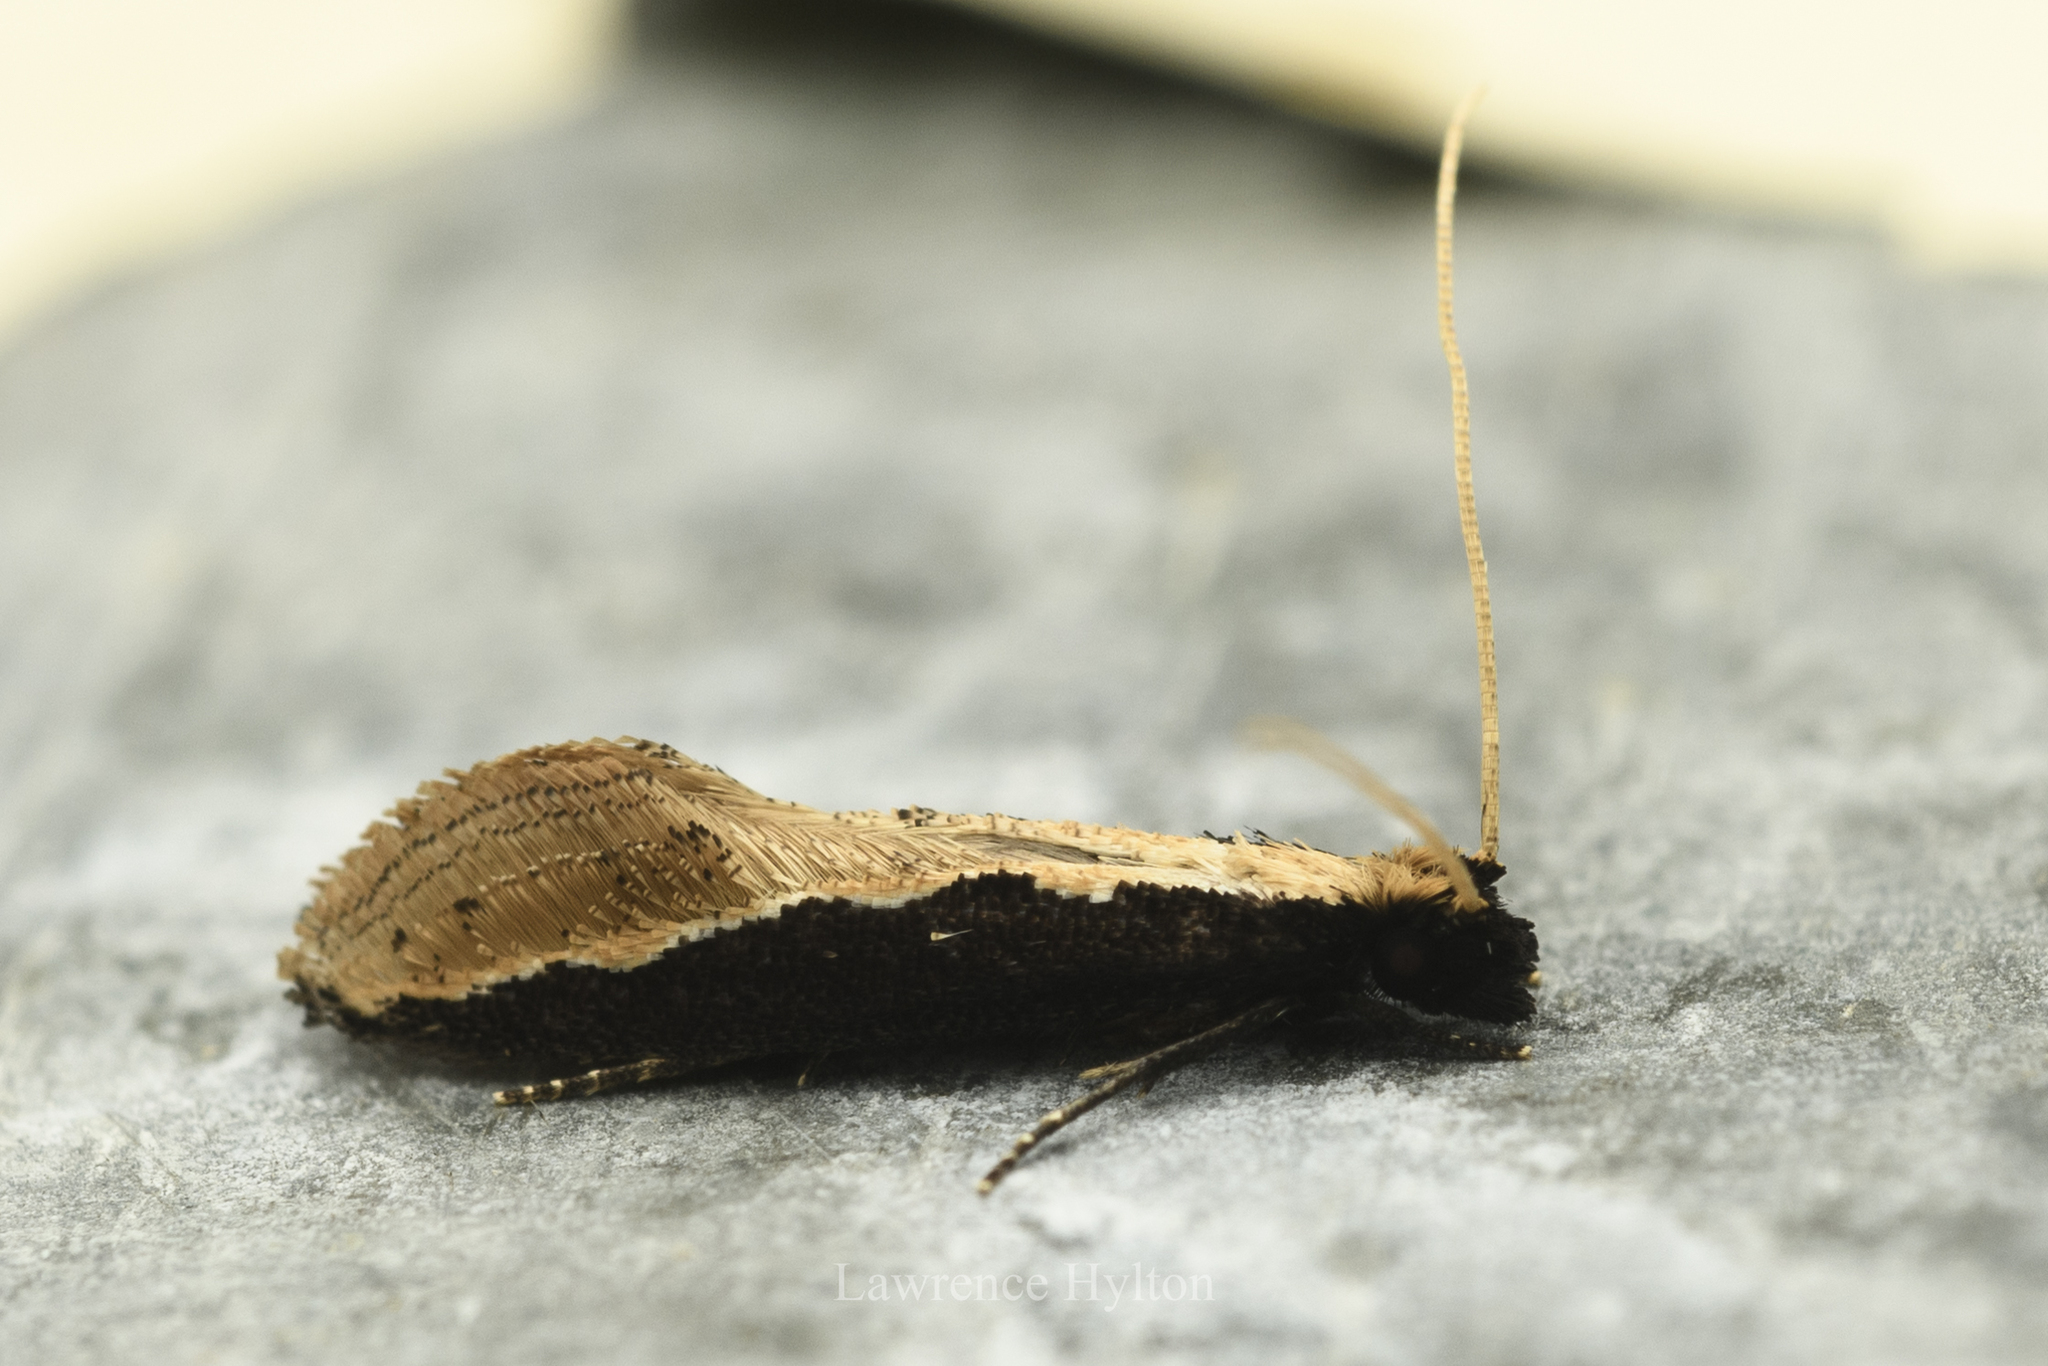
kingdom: Animalia
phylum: Arthropoda
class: Insecta
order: Lepidoptera
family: Tineidae
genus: Pyloetis
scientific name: Pyloetis mimosae
